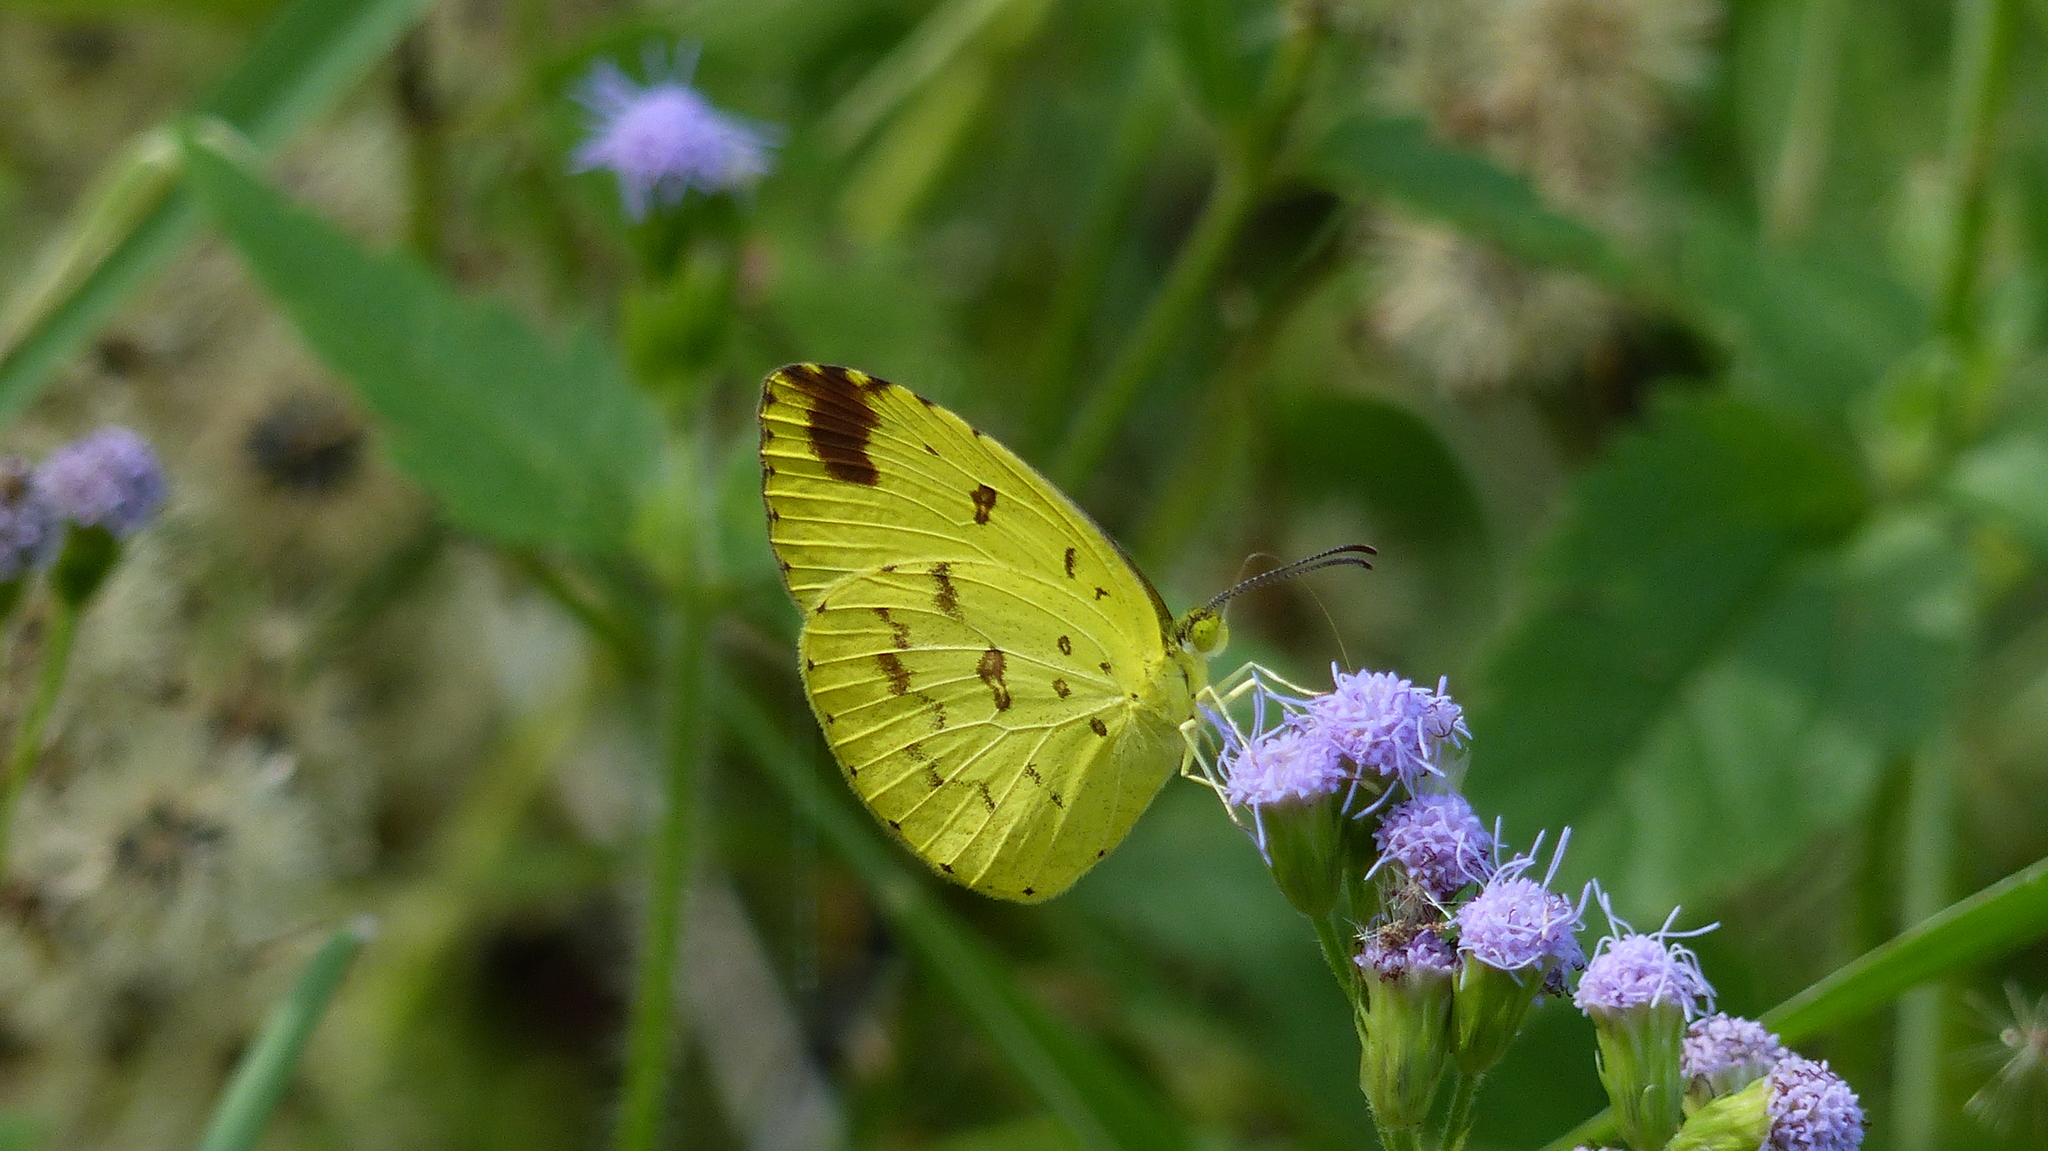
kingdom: Animalia
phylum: Arthropoda
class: Insecta
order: Lepidoptera
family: Pieridae
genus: Eurema
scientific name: Eurema hecabe
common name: Pale grass yellow
